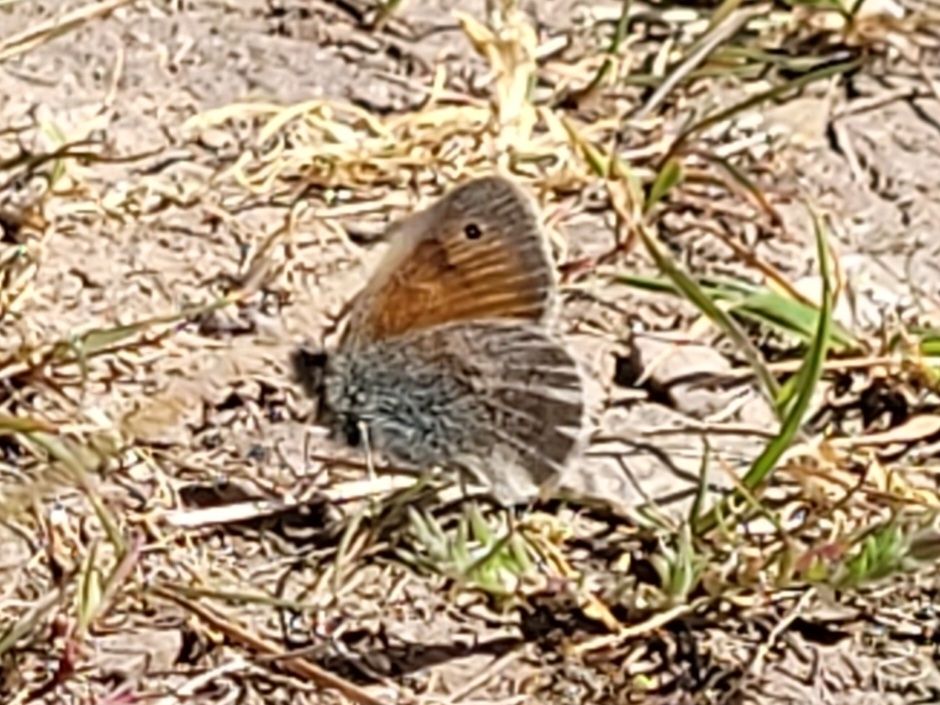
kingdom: Animalia
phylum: Arthropoda
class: Insecta
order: Lepidoptera
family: Nymphalidae
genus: Coenonympha
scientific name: Coenonympha pamphilus
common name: Small heath
